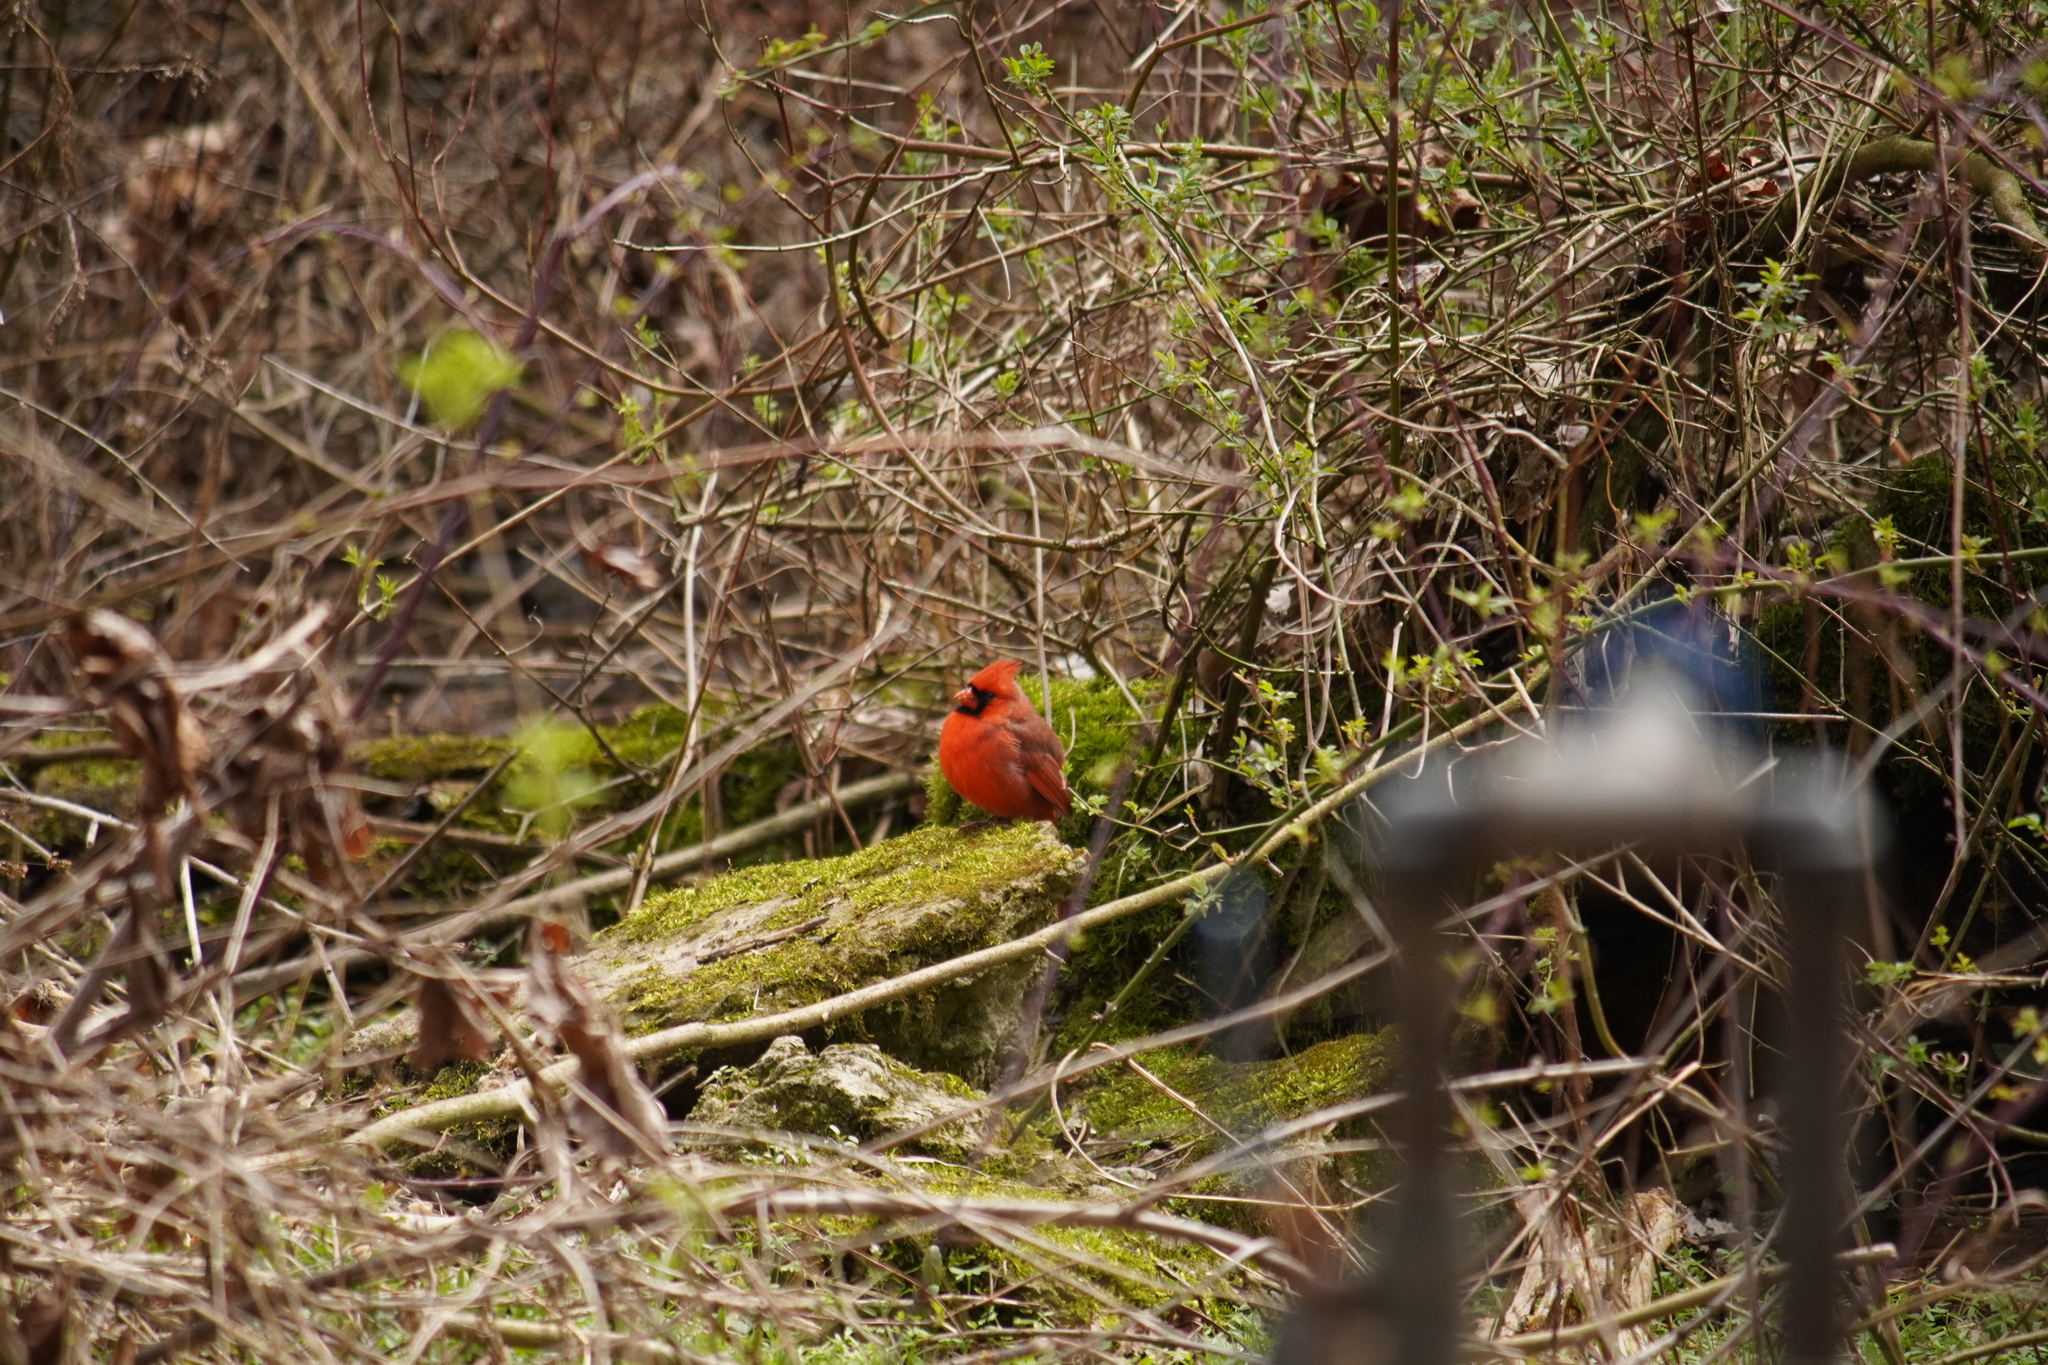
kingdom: Animalia
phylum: Chordata
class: Aves
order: Passeriformes
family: Cardinalidae
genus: Cardinalis
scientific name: Cardinalis cardinalis
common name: Northern cardinal
